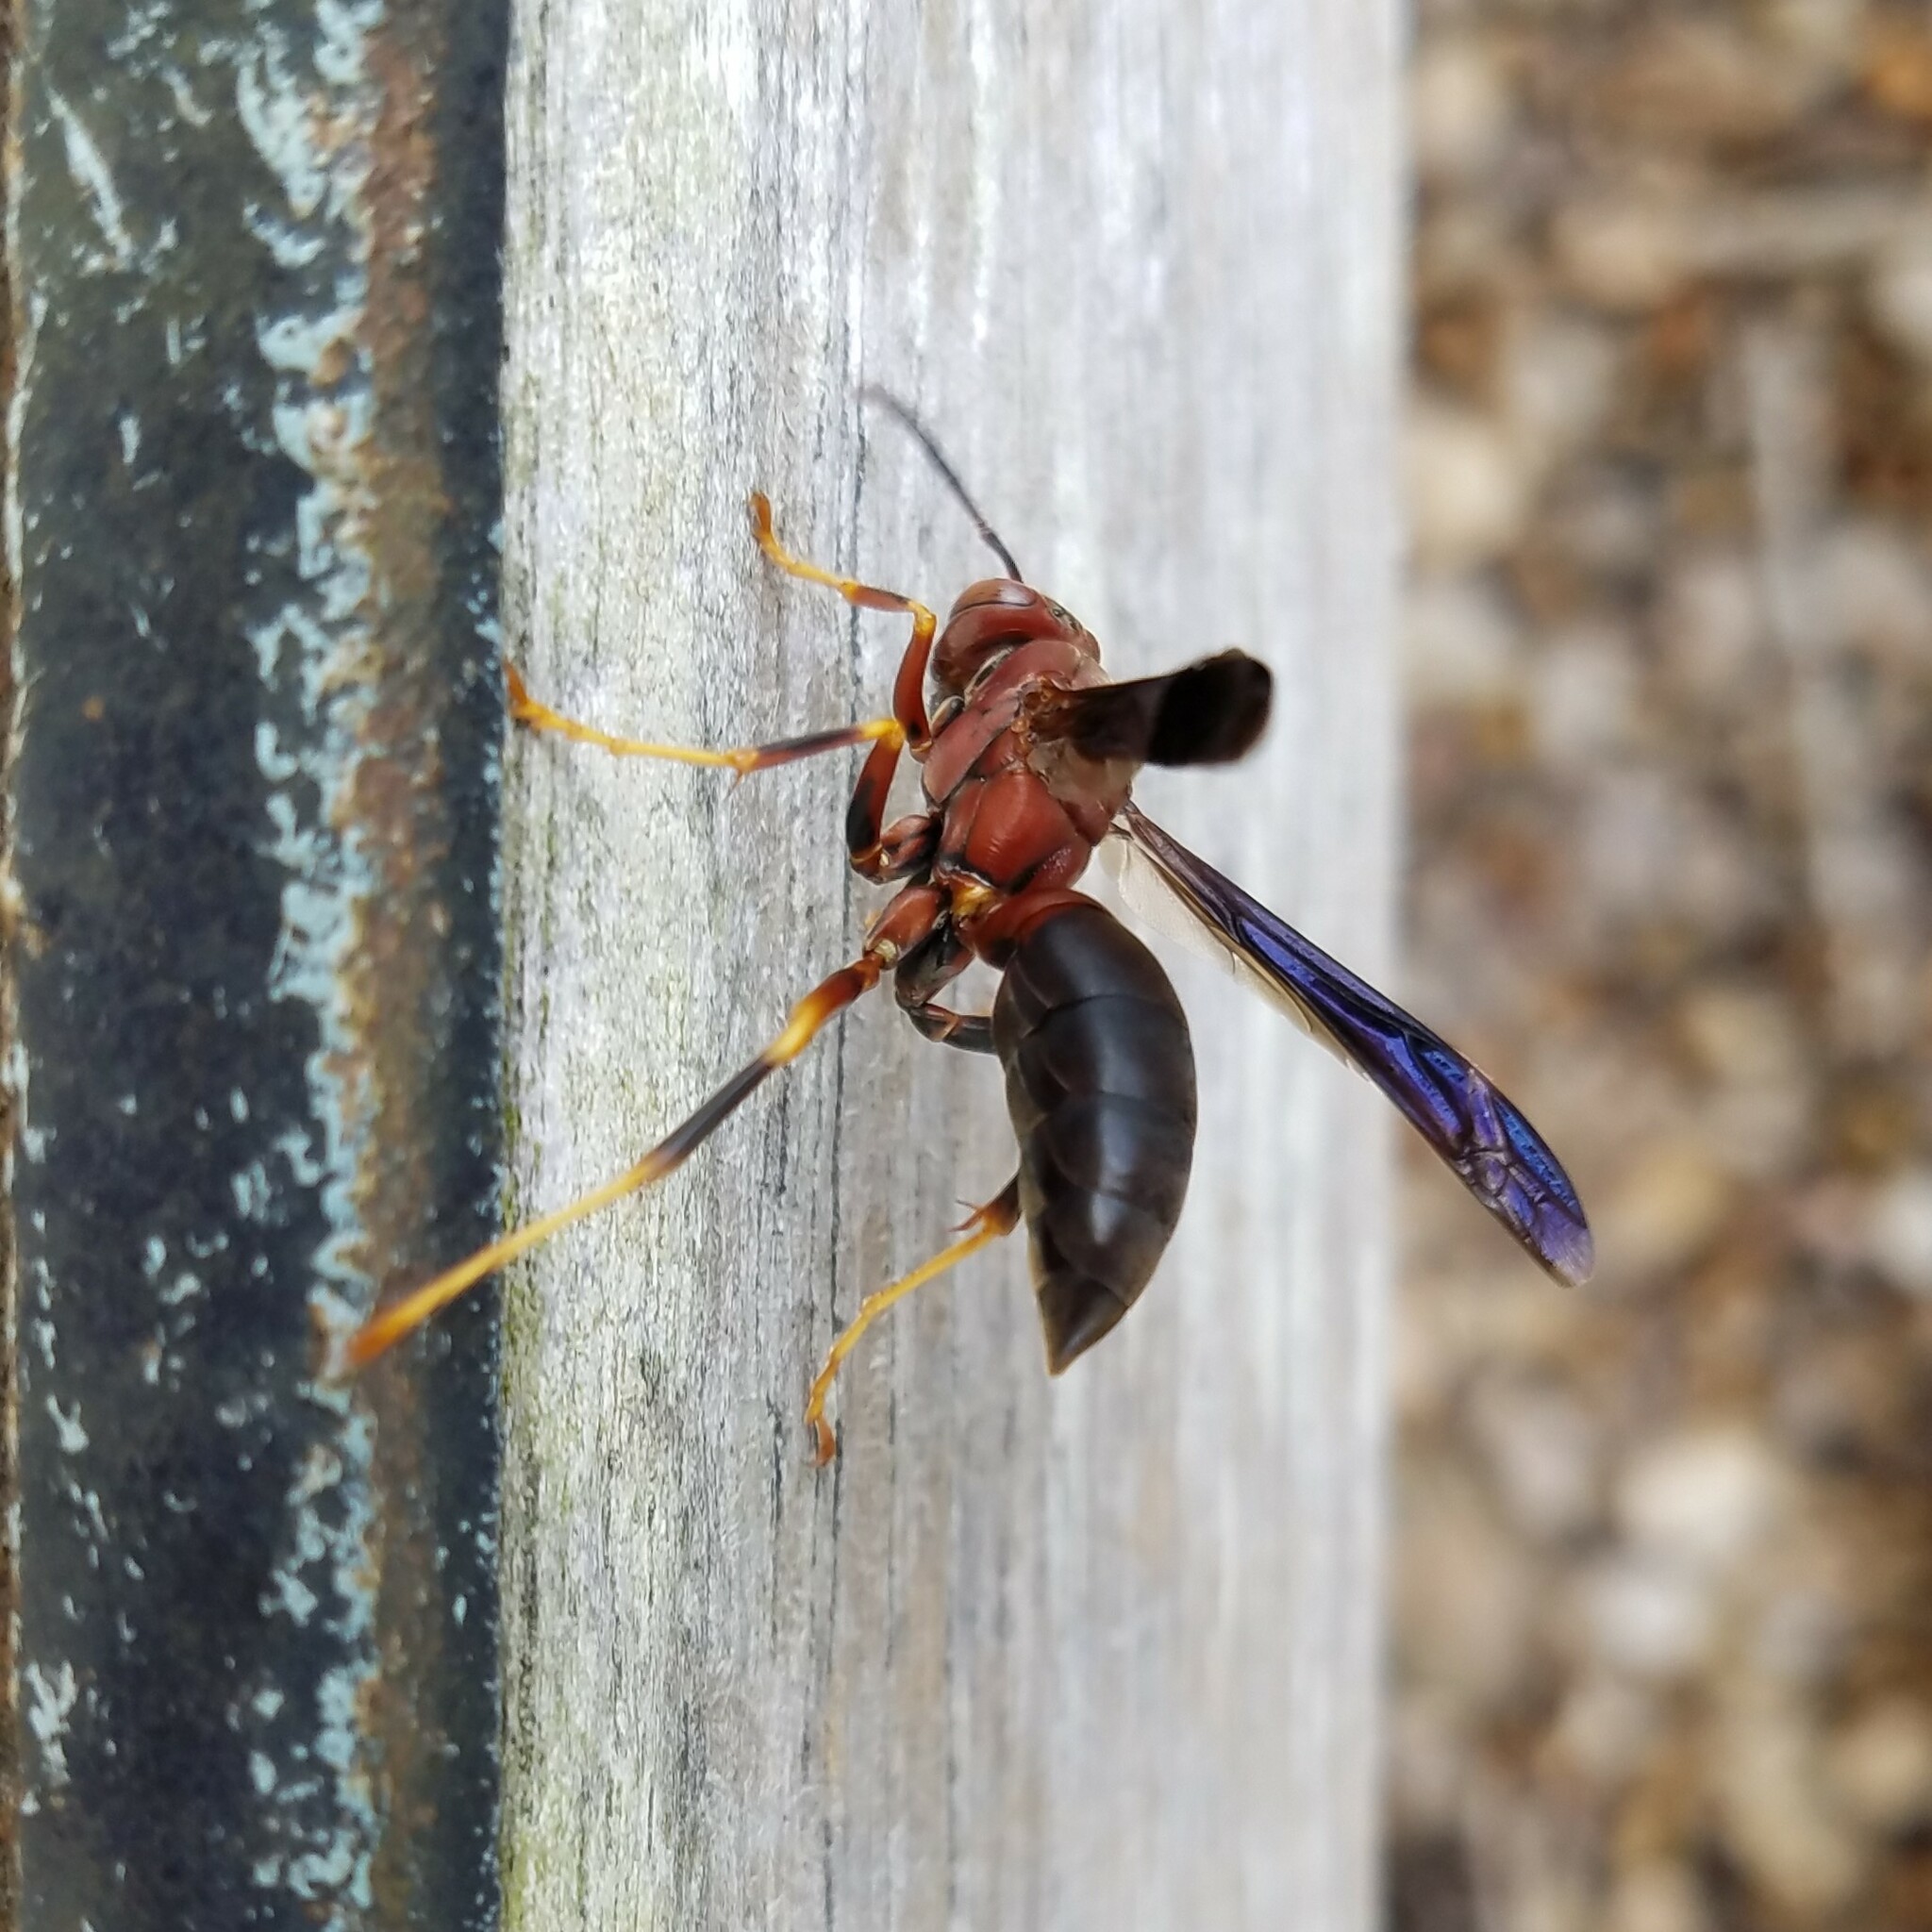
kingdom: Animalia
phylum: Arthropoda
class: Insecta
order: Hymenoptera
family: Eumenidae
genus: Polistes
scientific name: Polistes metricus
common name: Metric paper wasp
